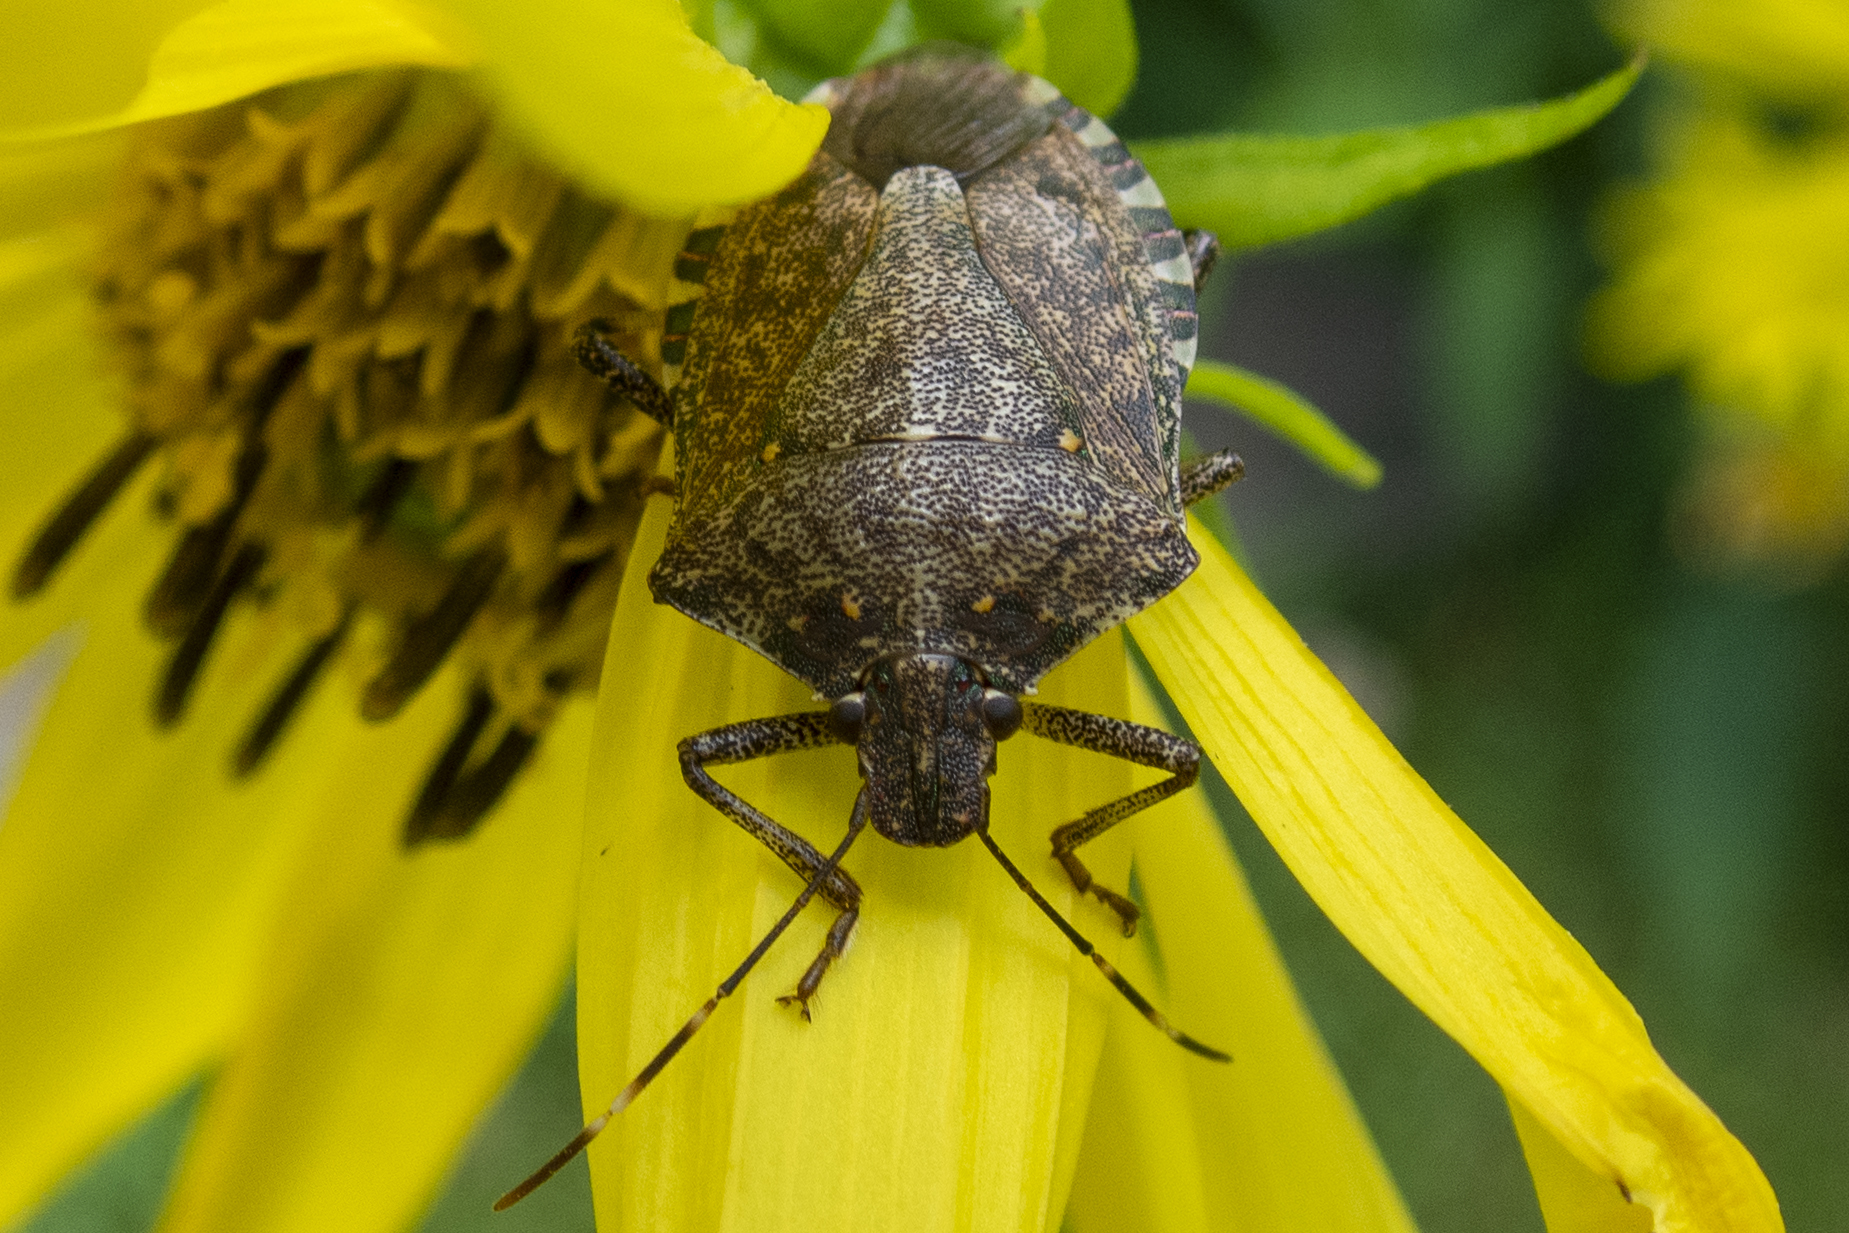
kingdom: Animalia
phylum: Arthropoda
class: Insecta
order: Hemiptera
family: Pentatomidae
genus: Halyomorpha
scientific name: Halyomorpha halys
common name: Brown marmorated stink bug
